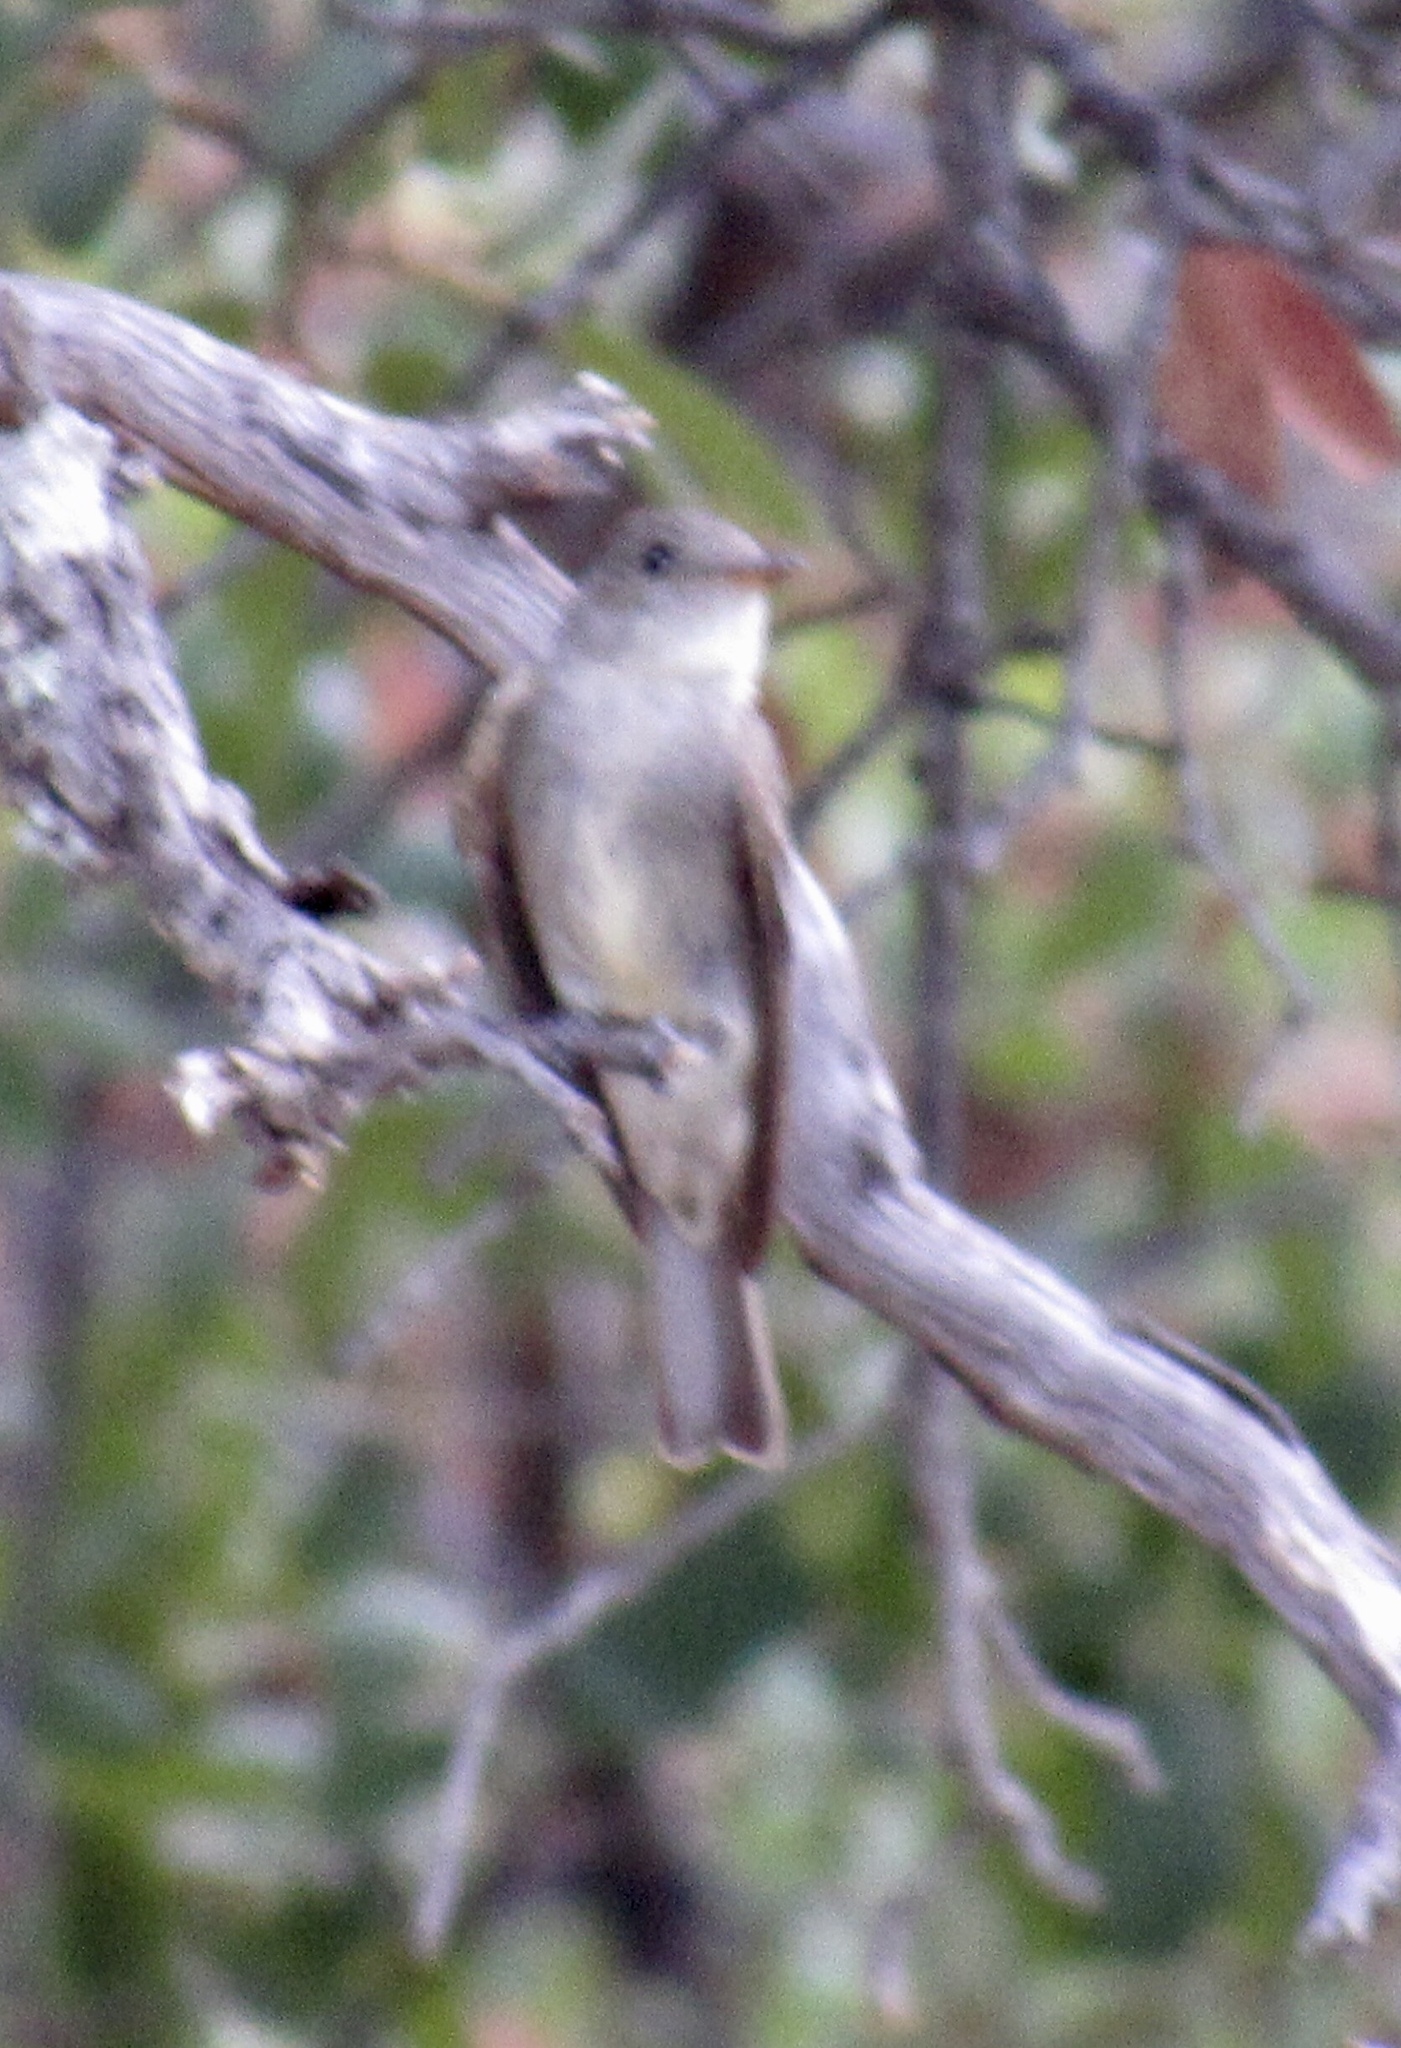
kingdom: Animalia
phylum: Chordata
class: Aves
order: Passeriformes
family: Tyrannidae
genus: Contopus
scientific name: Contopus sordidulus
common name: Western wood-pewee
